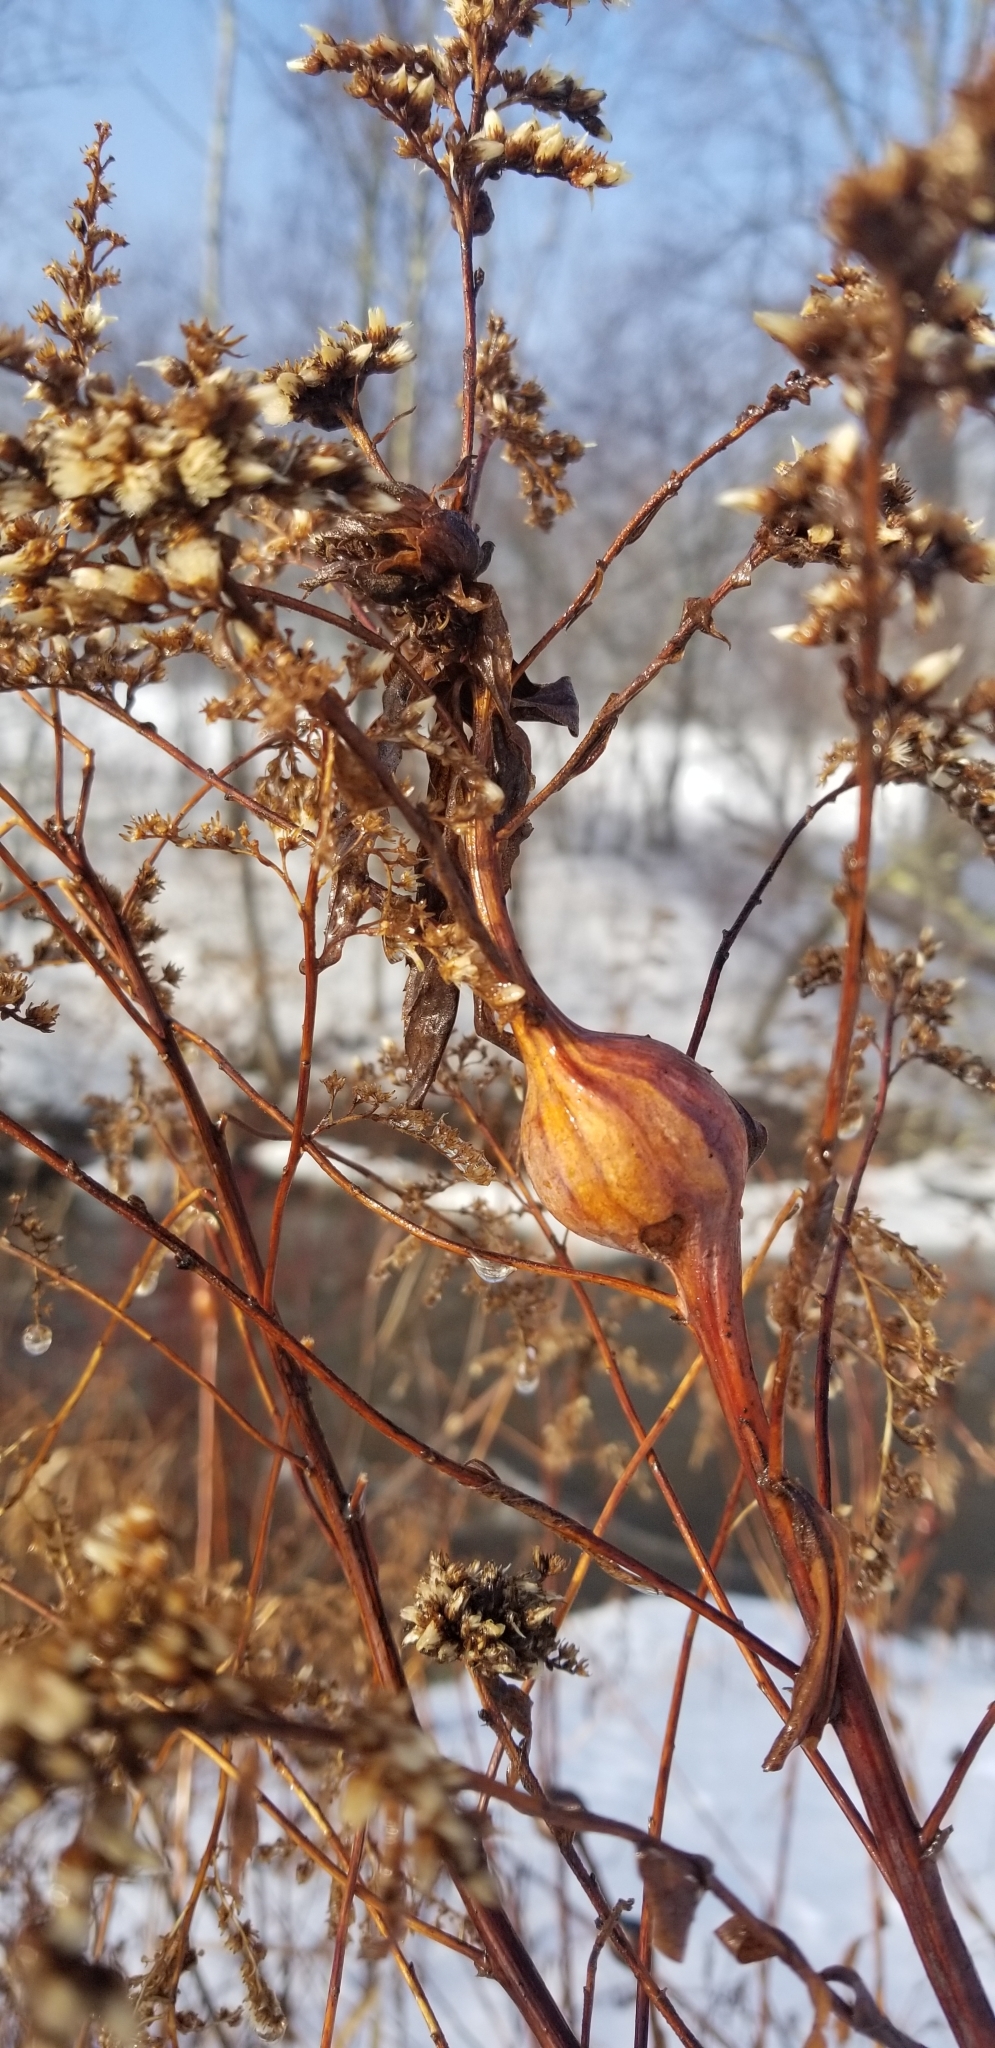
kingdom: Animalia
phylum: Arthropoda
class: Insecta
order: Diptera
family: Tephritidae
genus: Eurosta
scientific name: Eurosta solidaginis
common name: Goldenrod gall fly
